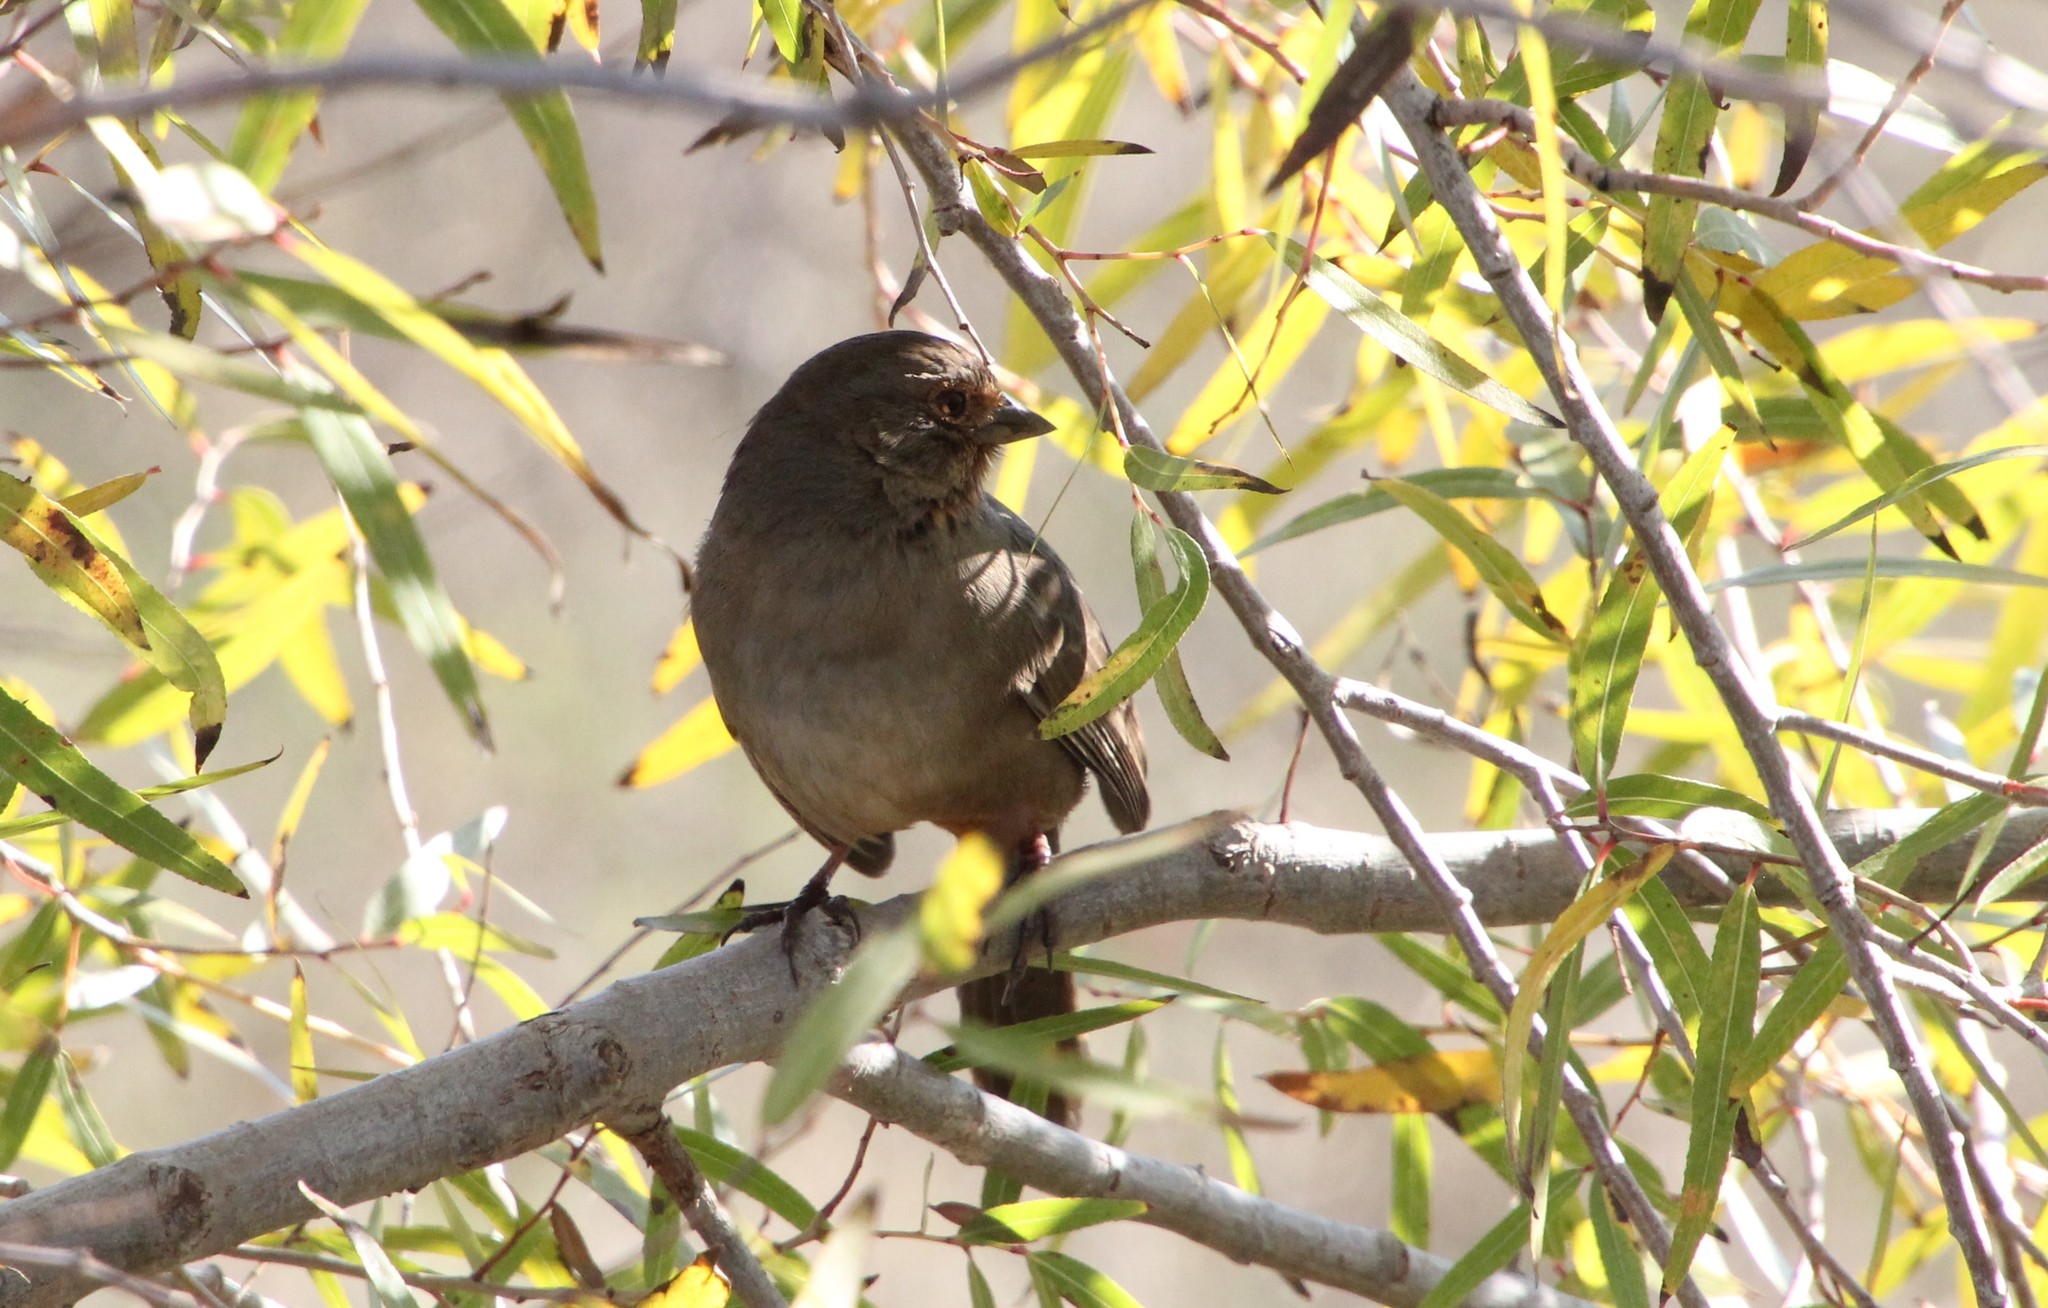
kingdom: Animalia
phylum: Chordata
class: Aves
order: Passeriformes
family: Passerellidae
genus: Melozone
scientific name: Melozone crissalis
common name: California towhee
